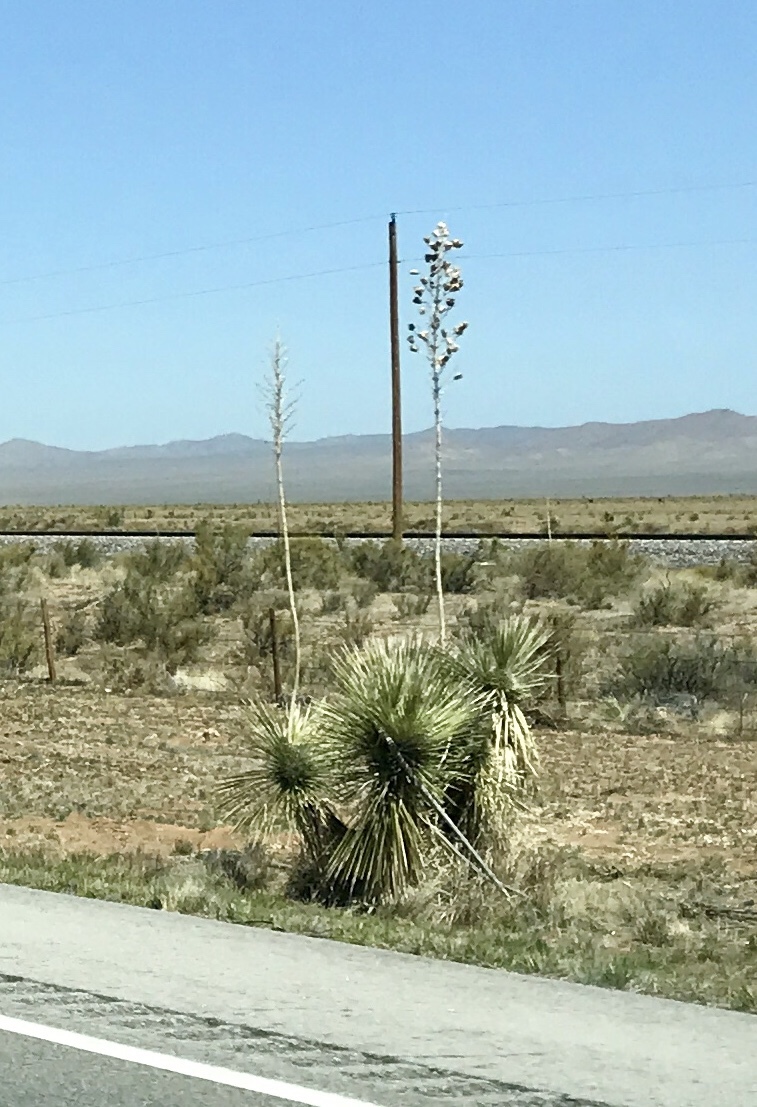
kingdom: Plantae
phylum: Tracheophyta
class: Liliopsida
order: Asparagales
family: Asparagaceae
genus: Yucca
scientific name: Yucca elata
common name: Palmella
